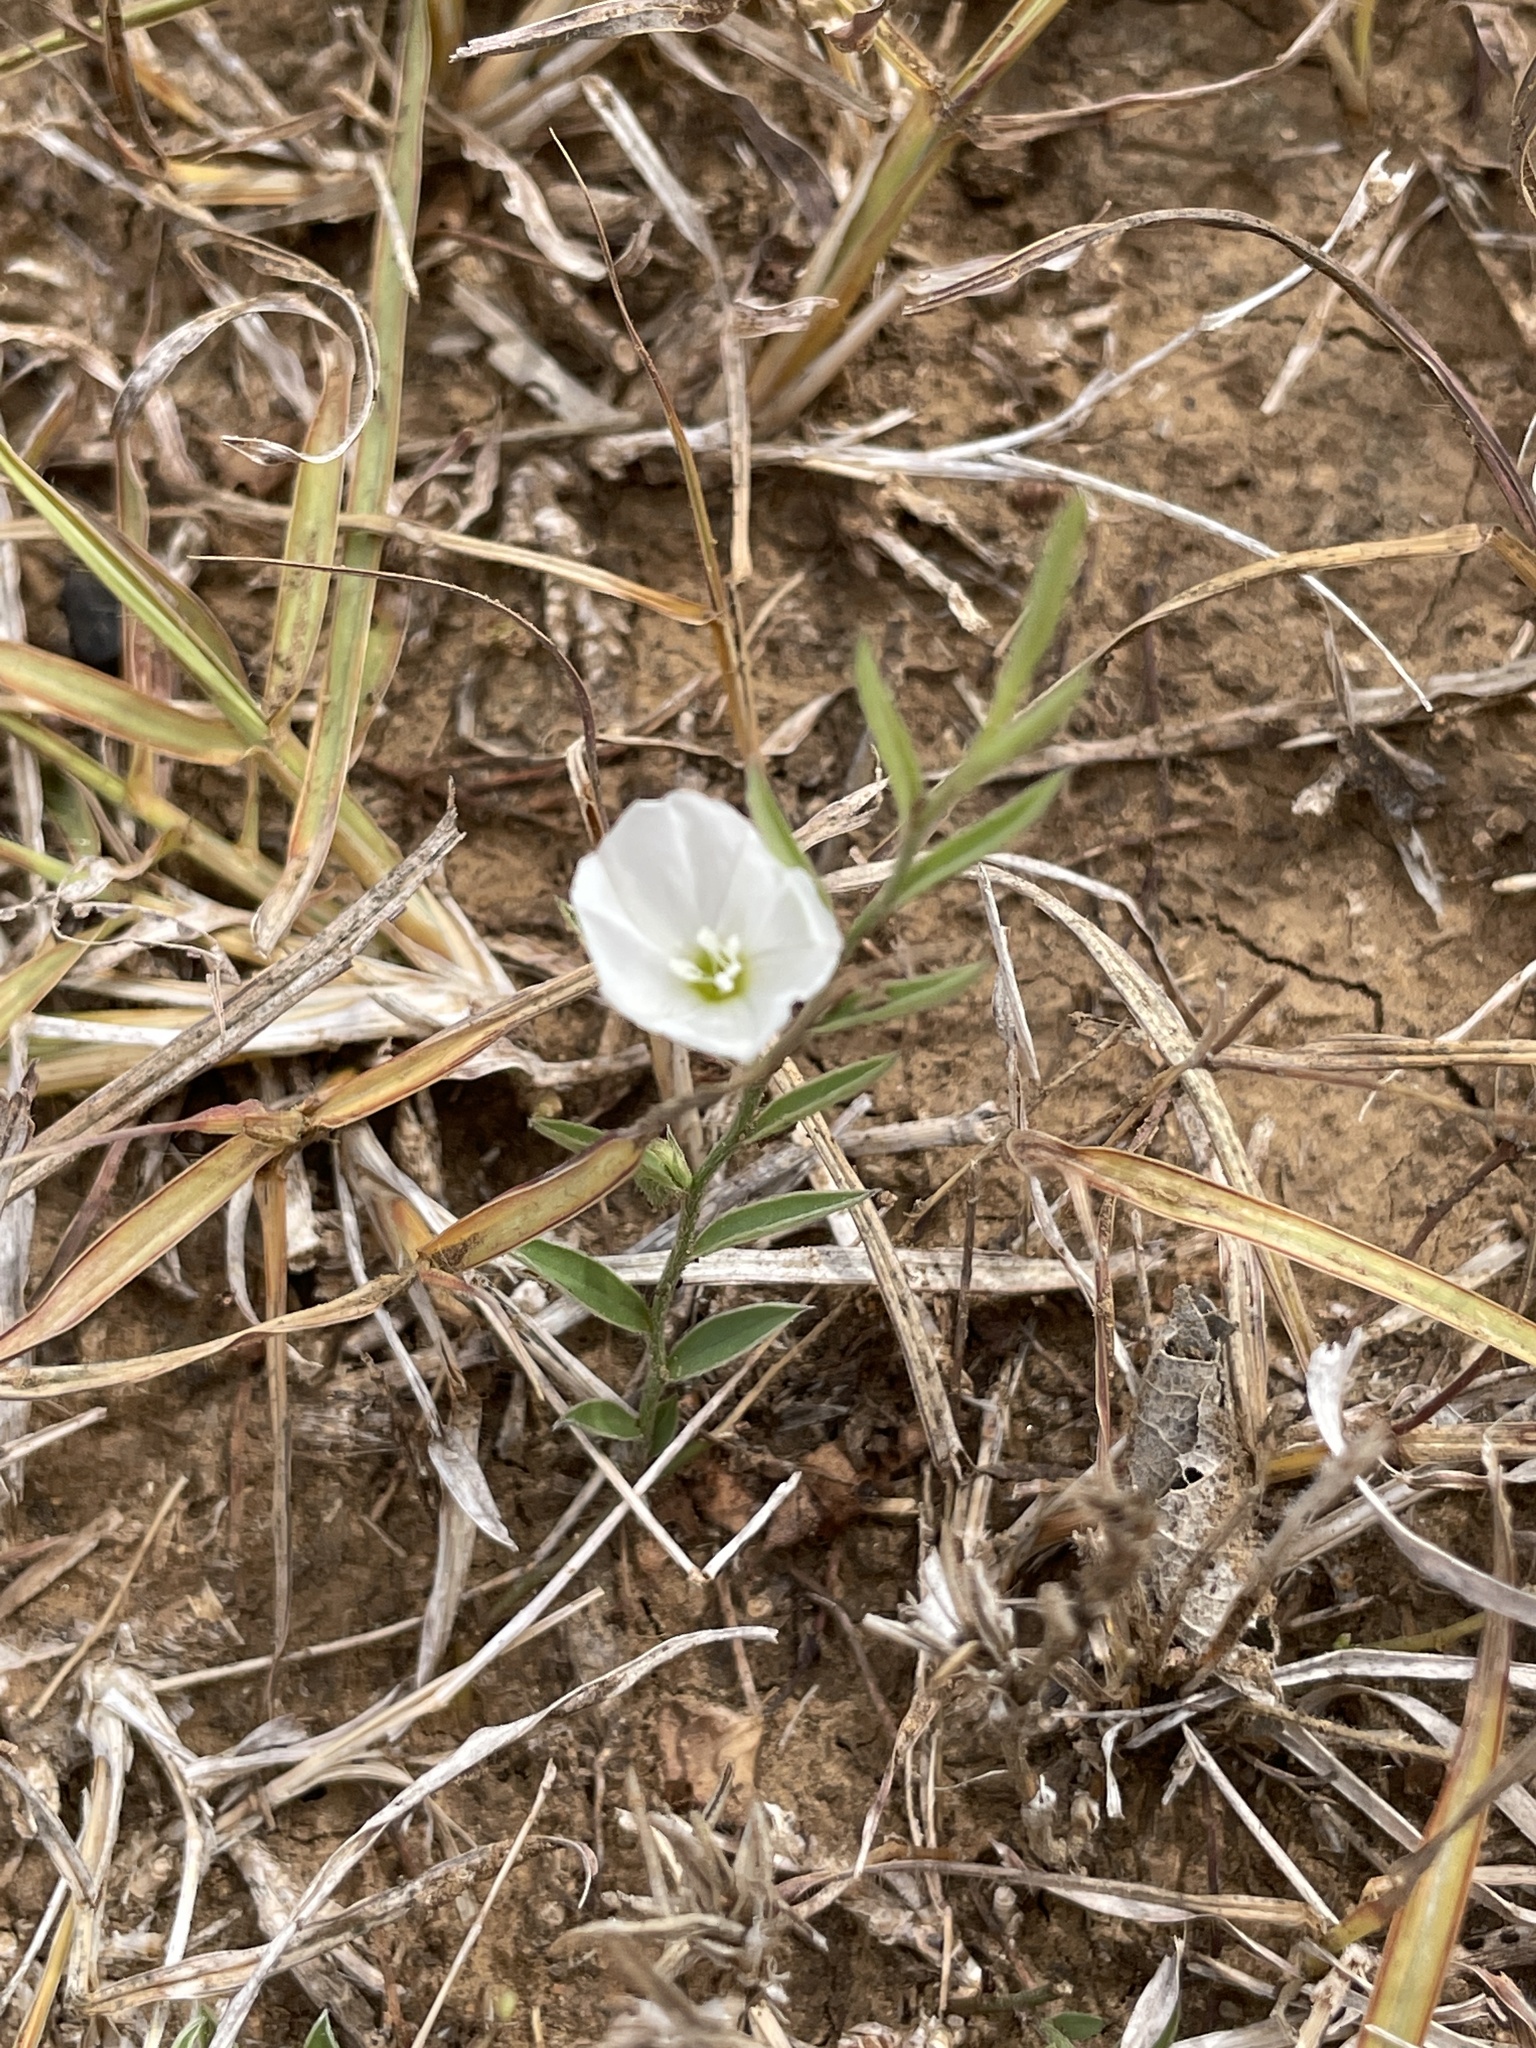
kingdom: Plantae
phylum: Tracheophyta
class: Magnoliopsida
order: Solanales
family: Convolvulaceae
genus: Evolvulus
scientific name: Evolvulus sericeus
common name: Blue dots
